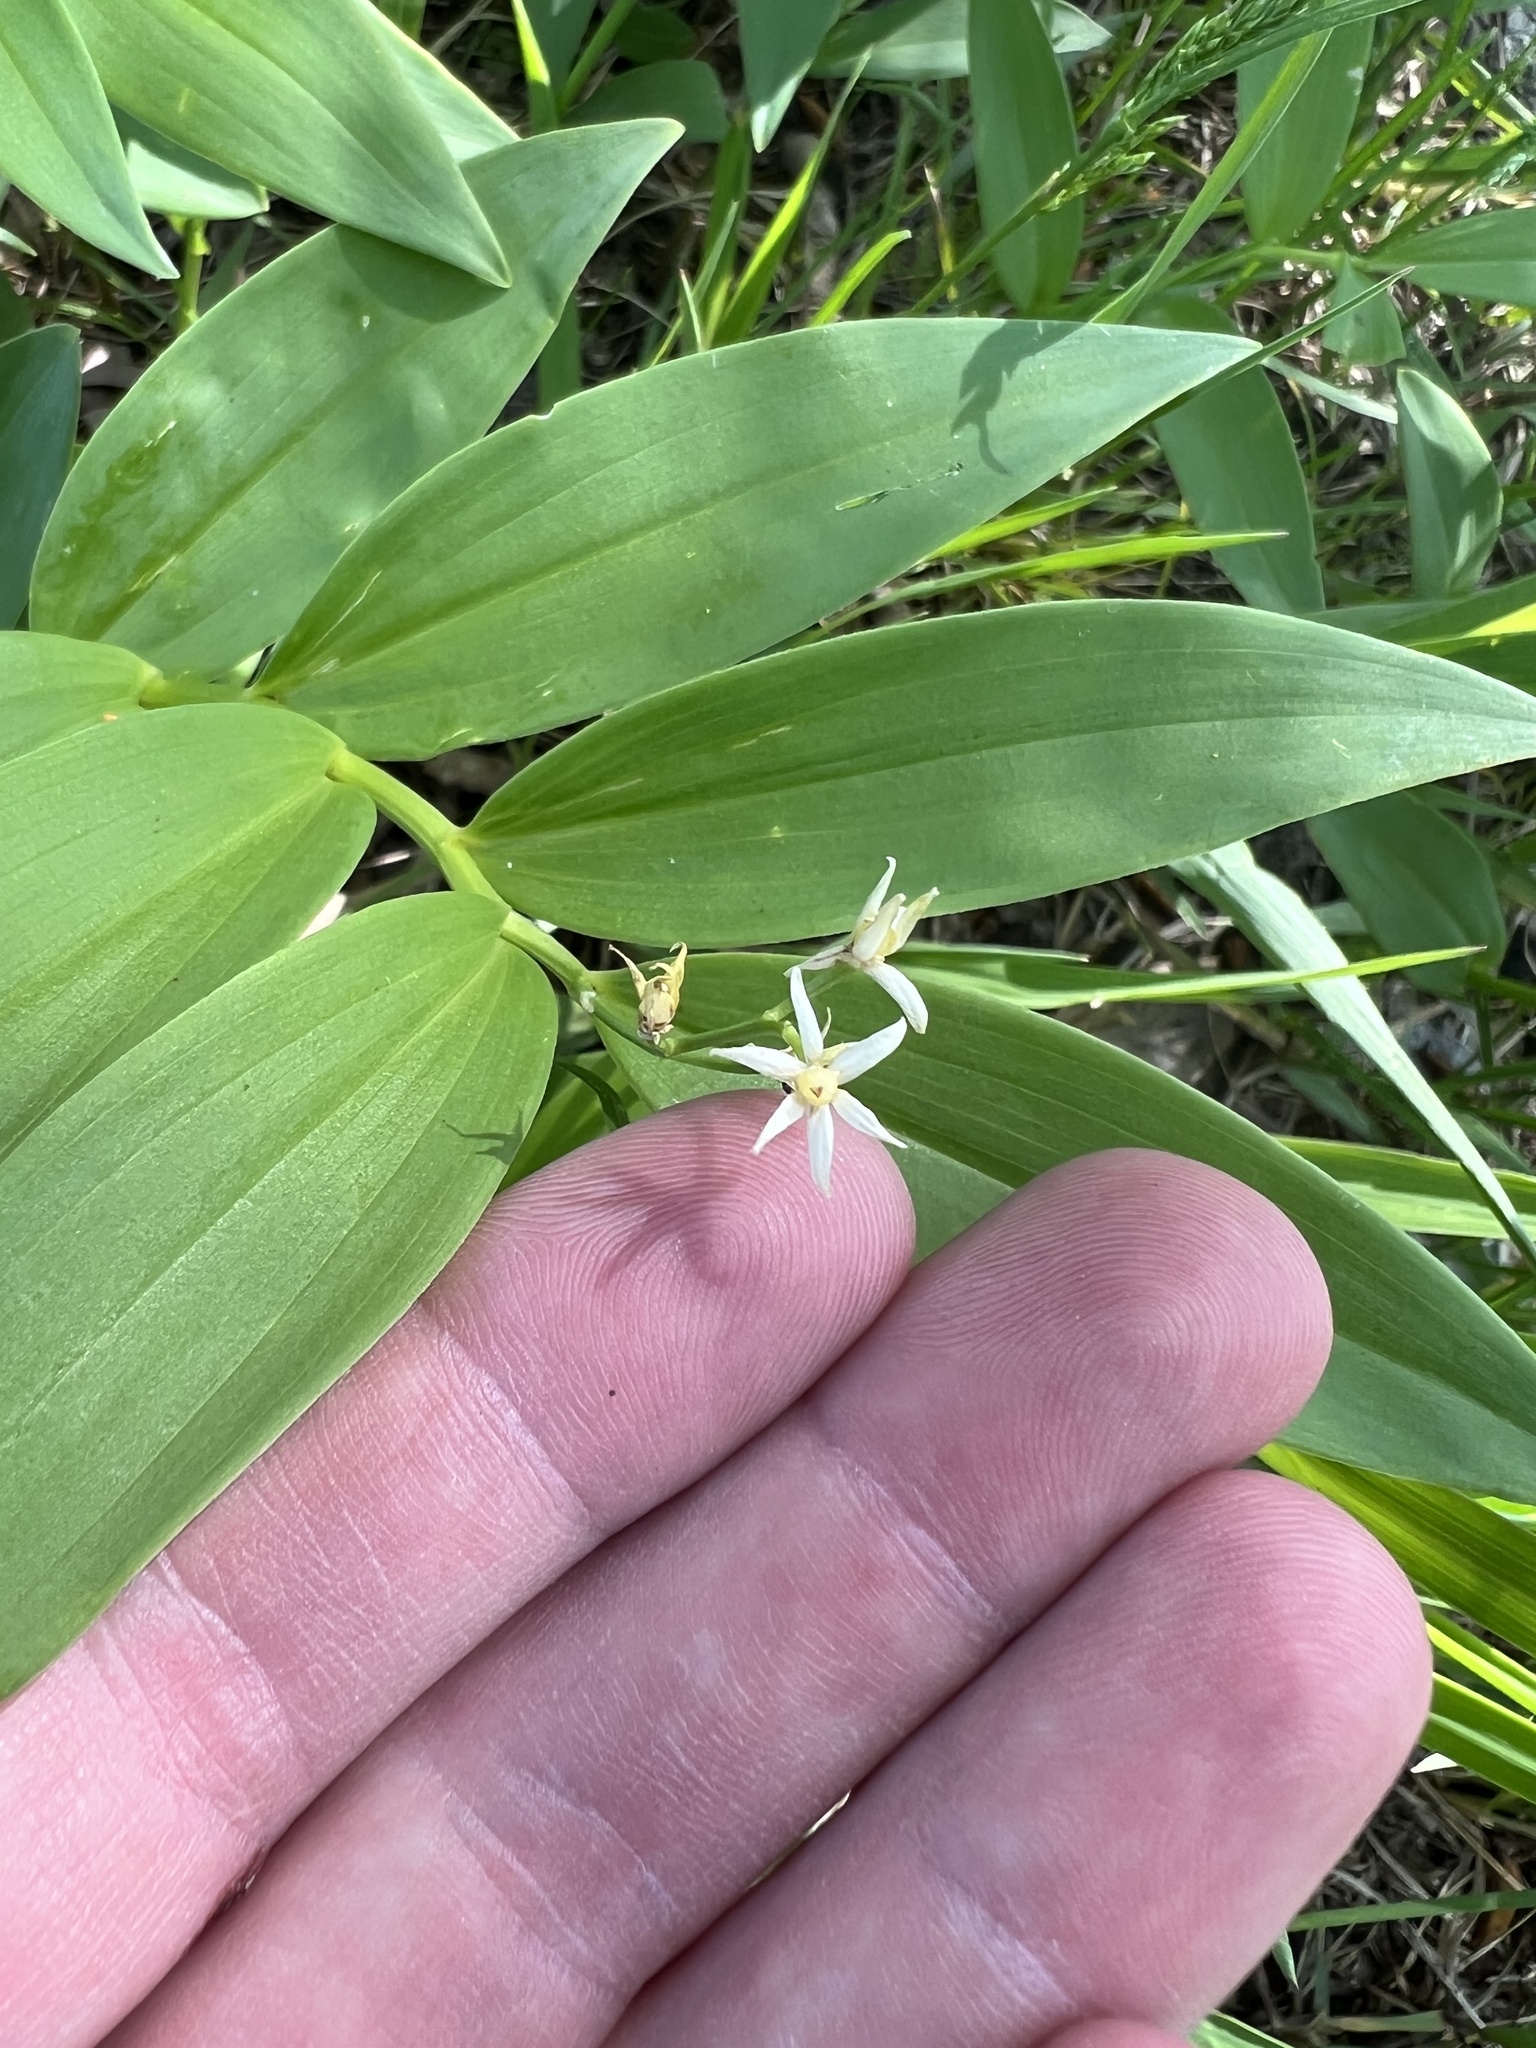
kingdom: Plantae
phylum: Tracheophyta
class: Liliopsida
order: Asparagales
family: Asparagaceae
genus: Maianthemum
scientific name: Maianthemum stellatum
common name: Little false solomon's seal
